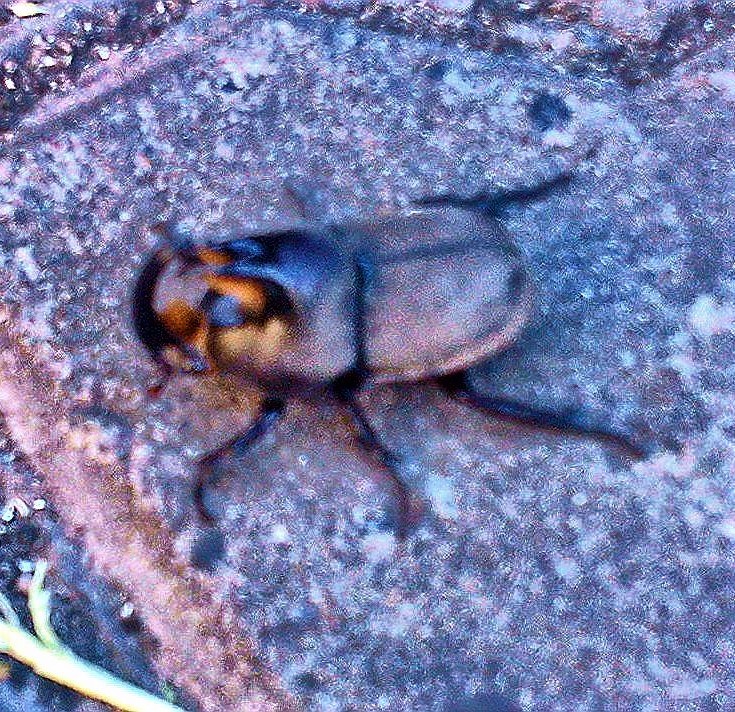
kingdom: Animalia
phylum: Arthropoda
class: Insecta
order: Coleoptera
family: Scarabaeidae
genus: Diloboderus
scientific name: Diloboderus abderus
